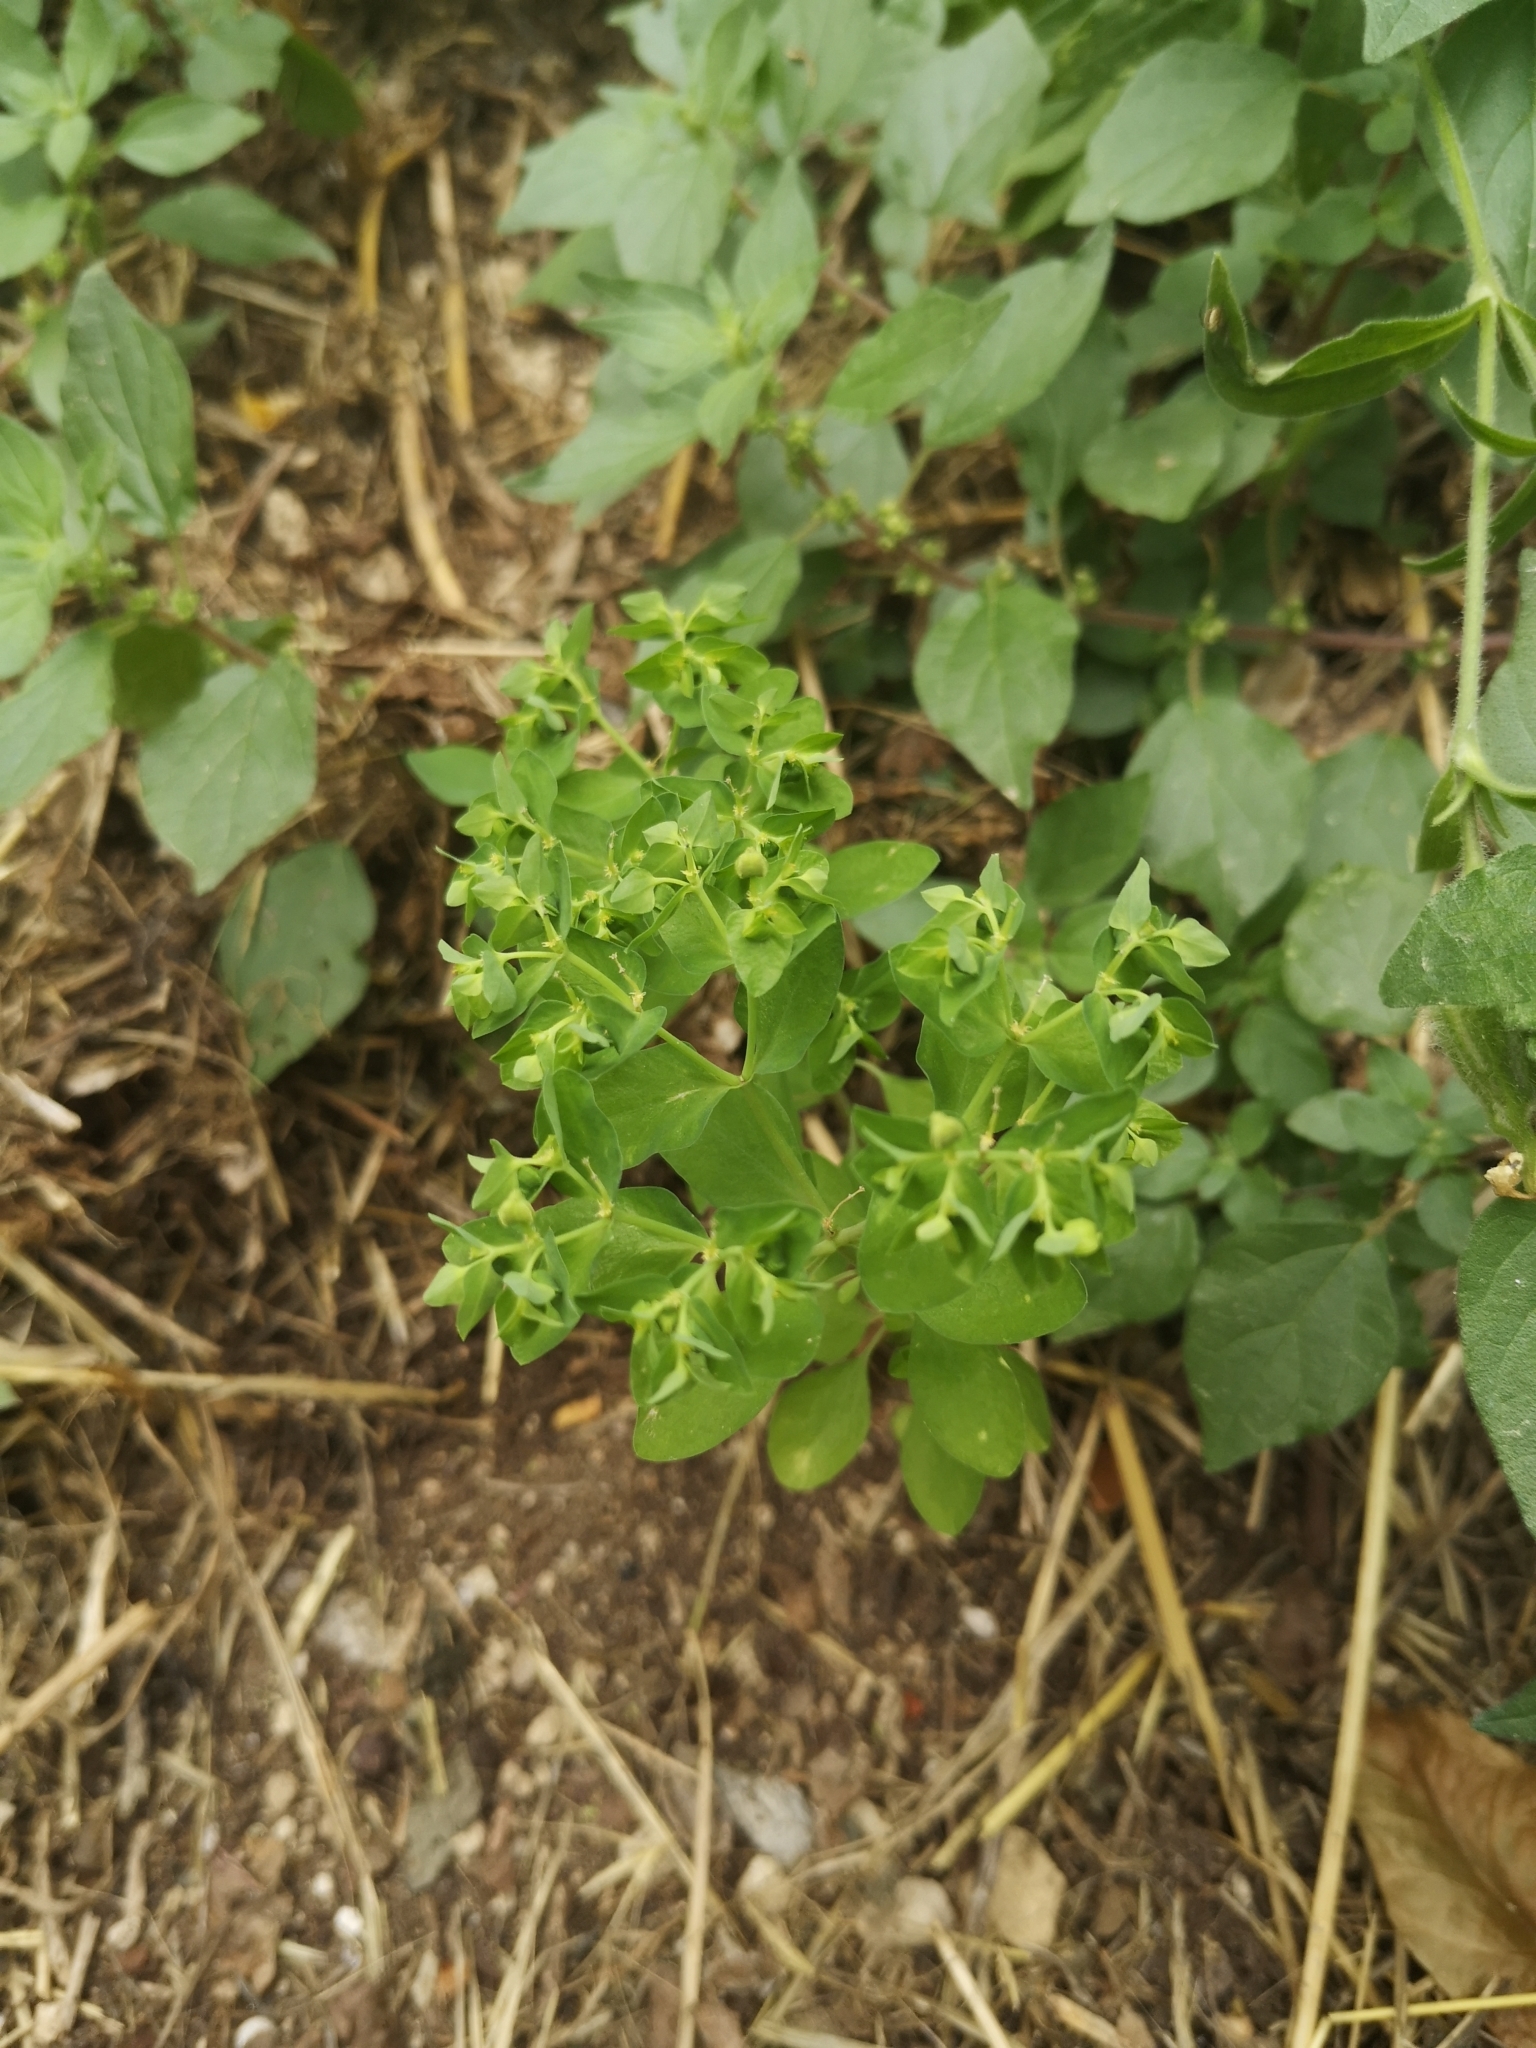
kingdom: Plantae
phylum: Tracheophyta
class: Magnoliopsida
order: Malpighiales
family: Euphorbiaceae
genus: Euphorbia
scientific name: Euphorbia peplus
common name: Petty spurge
